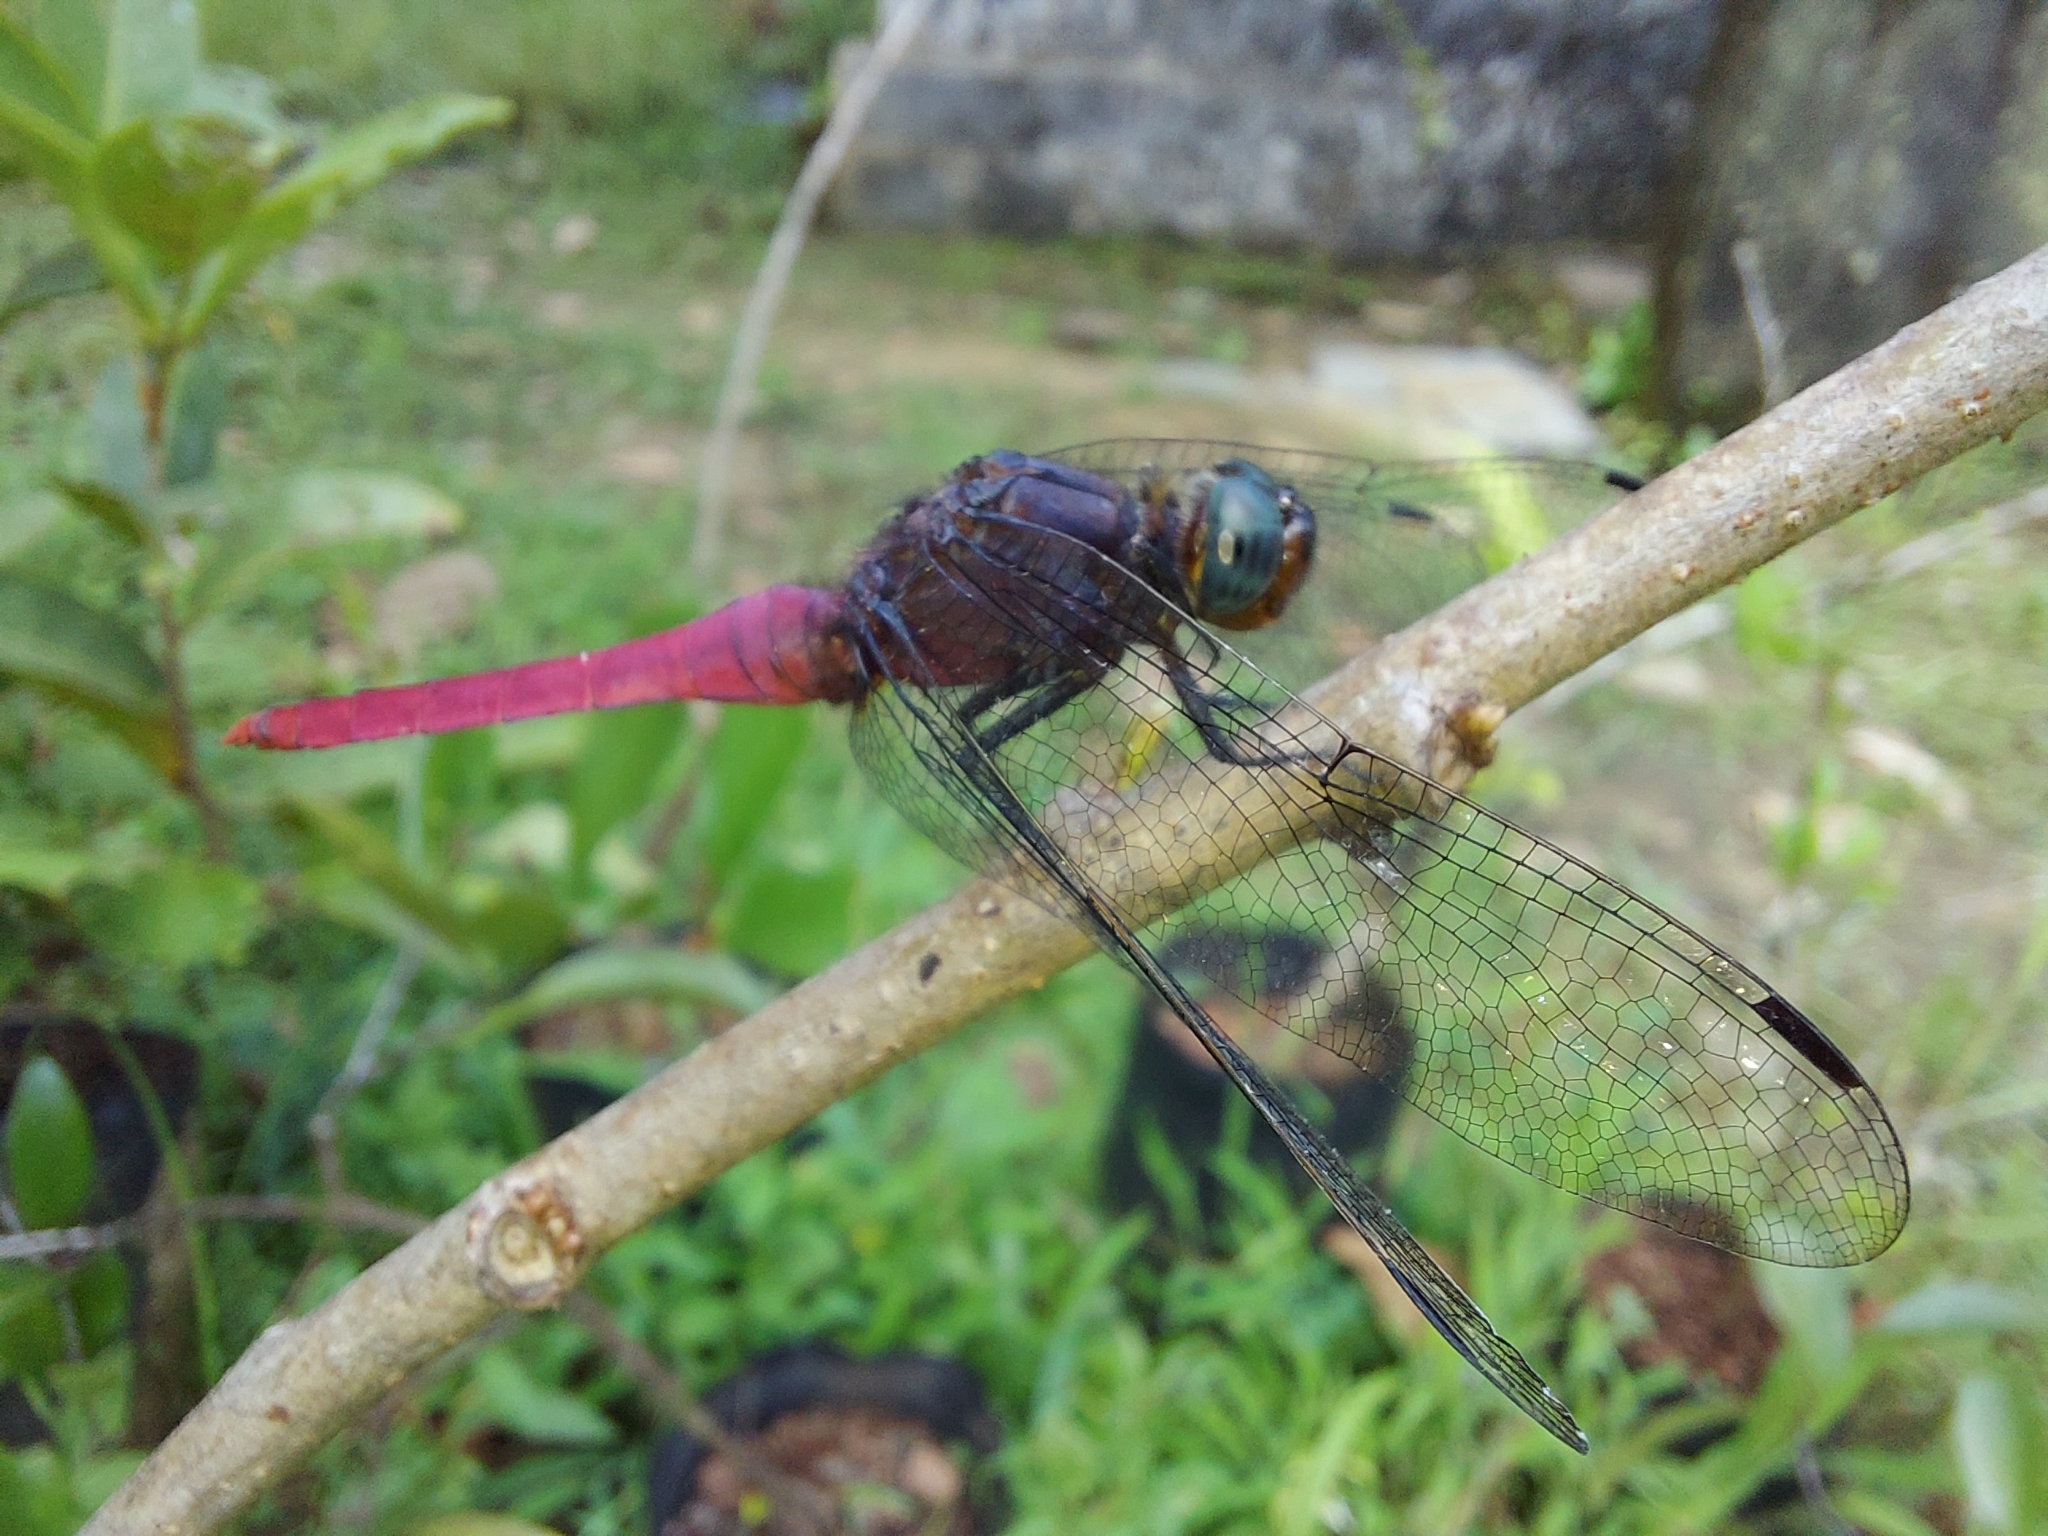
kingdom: Animalia
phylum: Arthropoda
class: Insecta
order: Odonata
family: Libellulidae
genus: Orthetrum
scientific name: Orthetrum pruinosum
